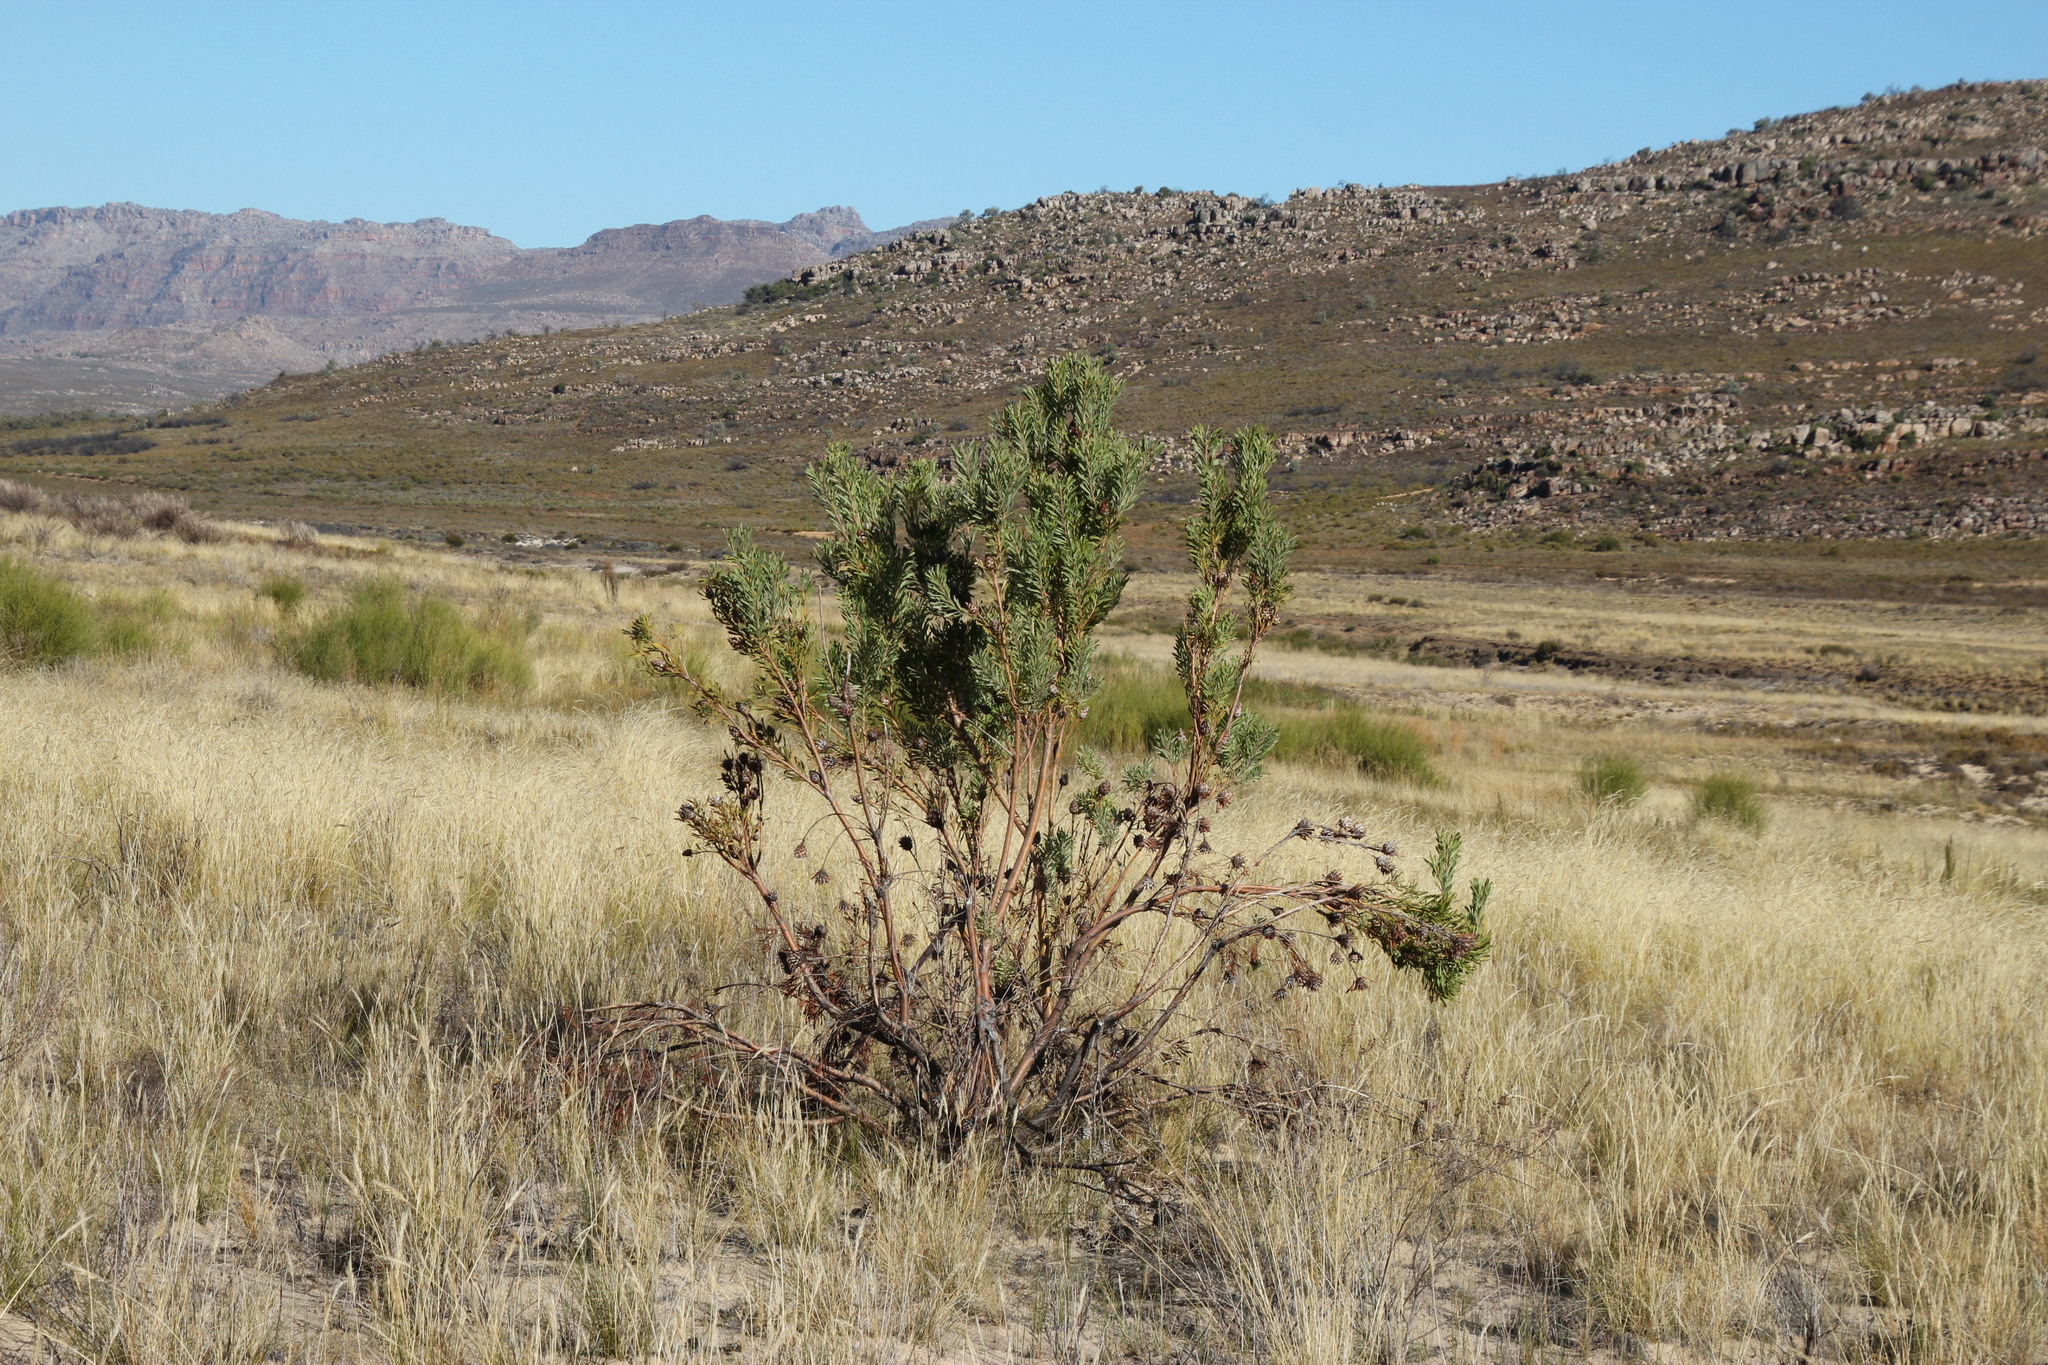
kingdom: Plantae
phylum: Tracheophyta
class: Magnoliopsida
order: Proteales
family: Proteaceae
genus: Leucadendron
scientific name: Leucadendron rubrum
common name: Spinning top
